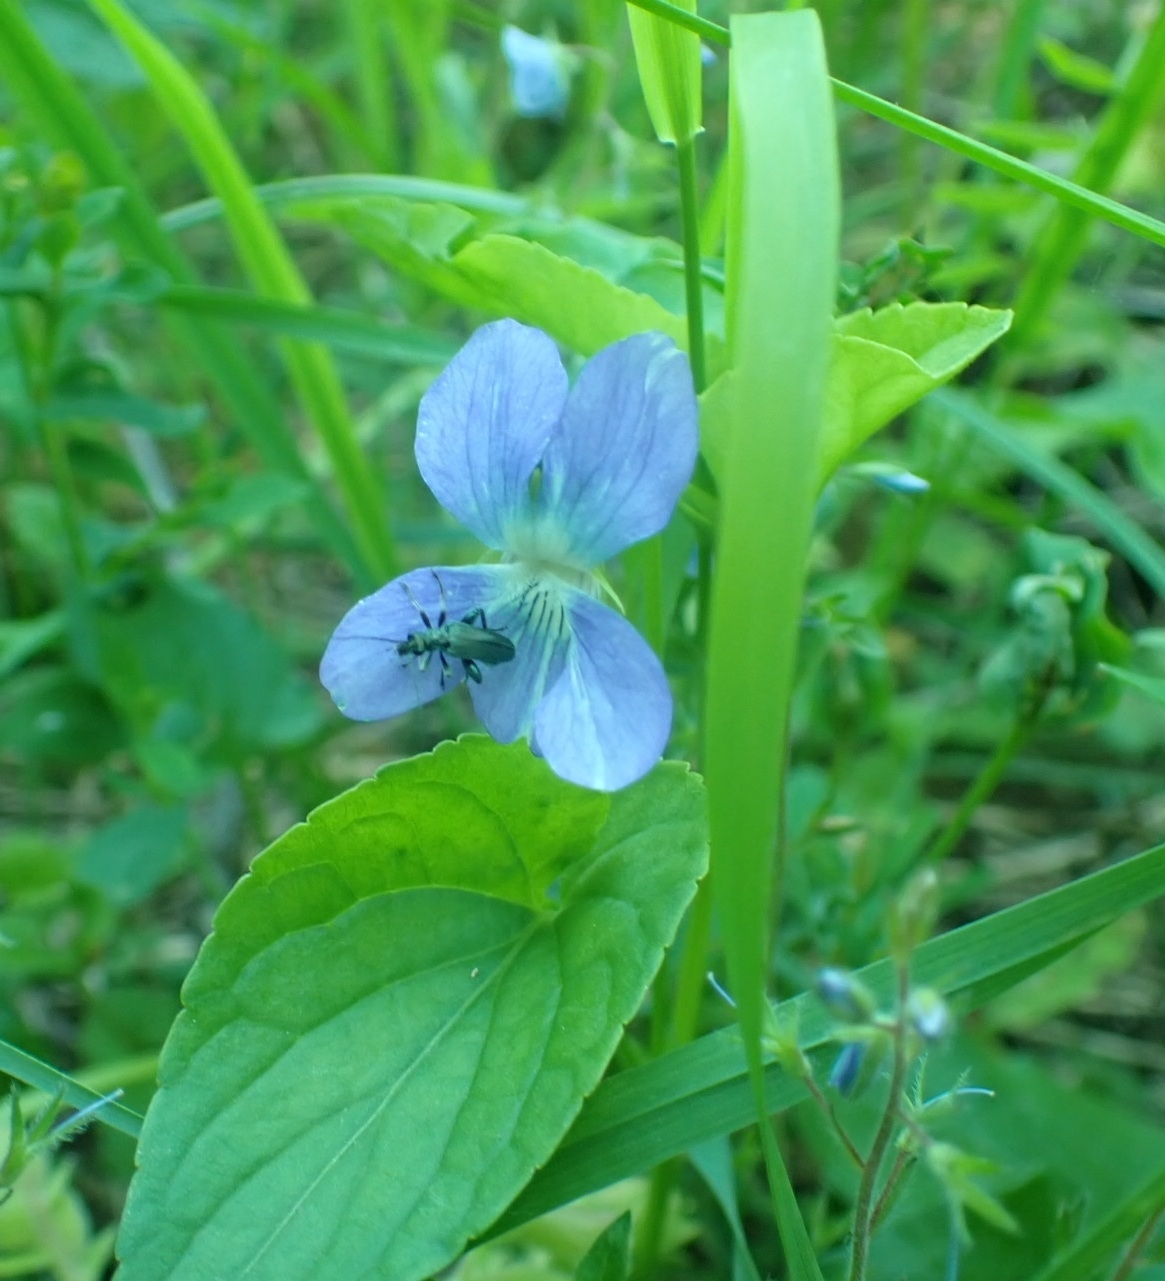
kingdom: Plantae
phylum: Tracheophyta
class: Magnoliopsida
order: Malpighiales
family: Violaceae
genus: Viola
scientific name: Viola
